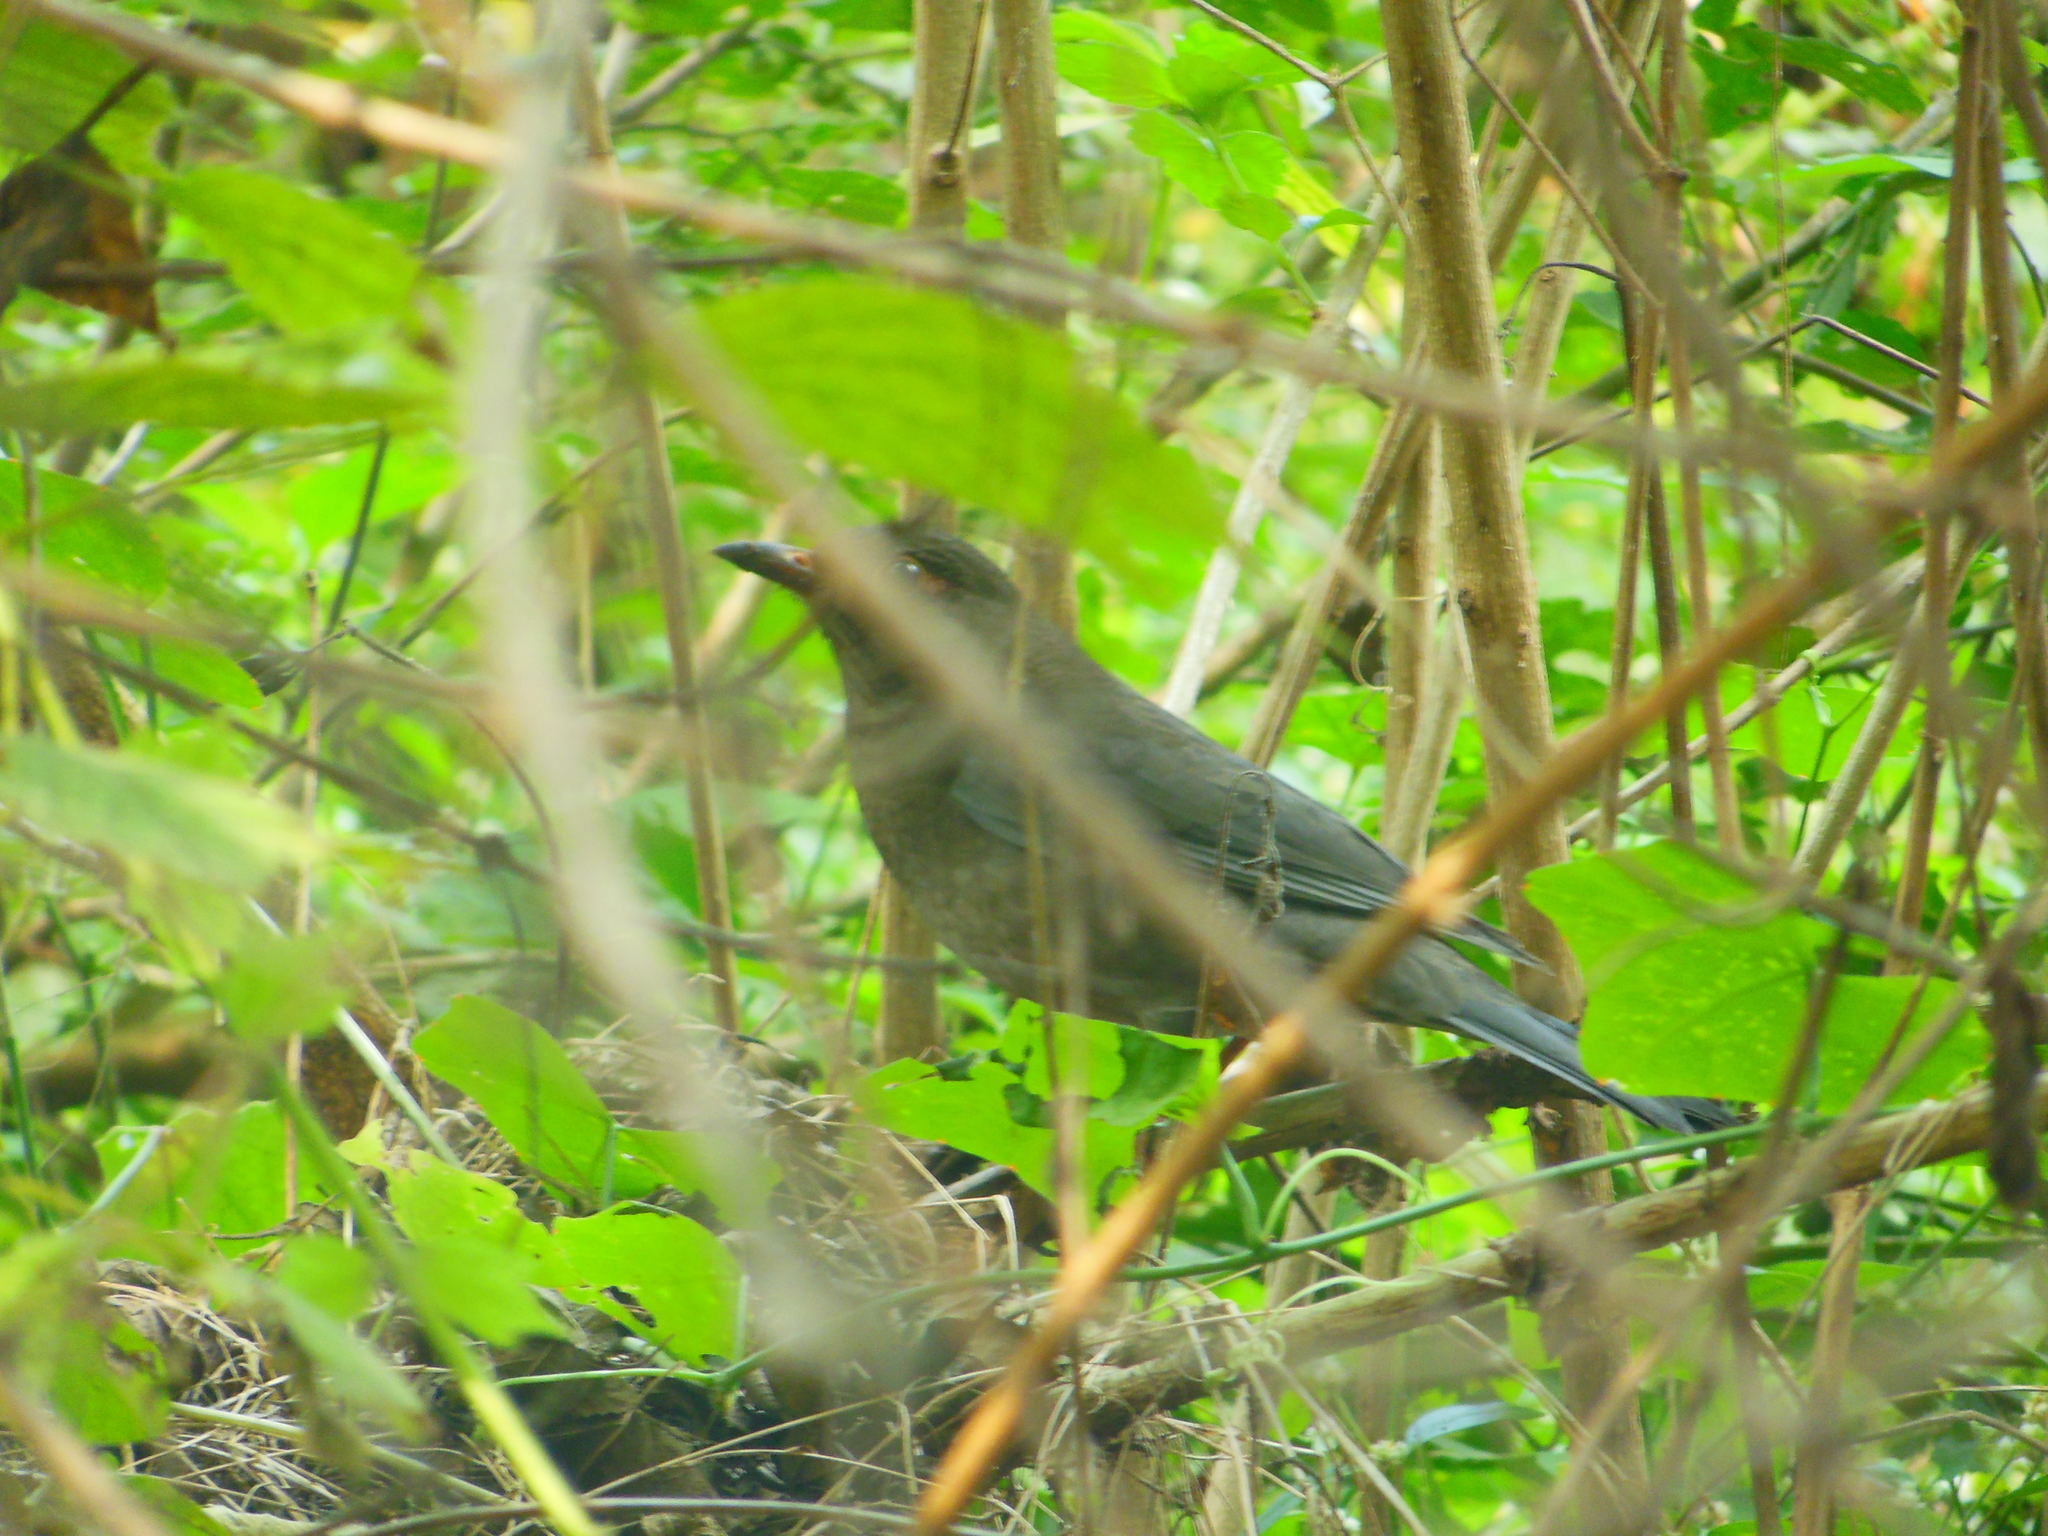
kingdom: Animalia
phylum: Chordata
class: Aves
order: Passeriformes
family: Turdidae
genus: Turdus
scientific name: Turdus simillimus
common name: Indian blackbird
